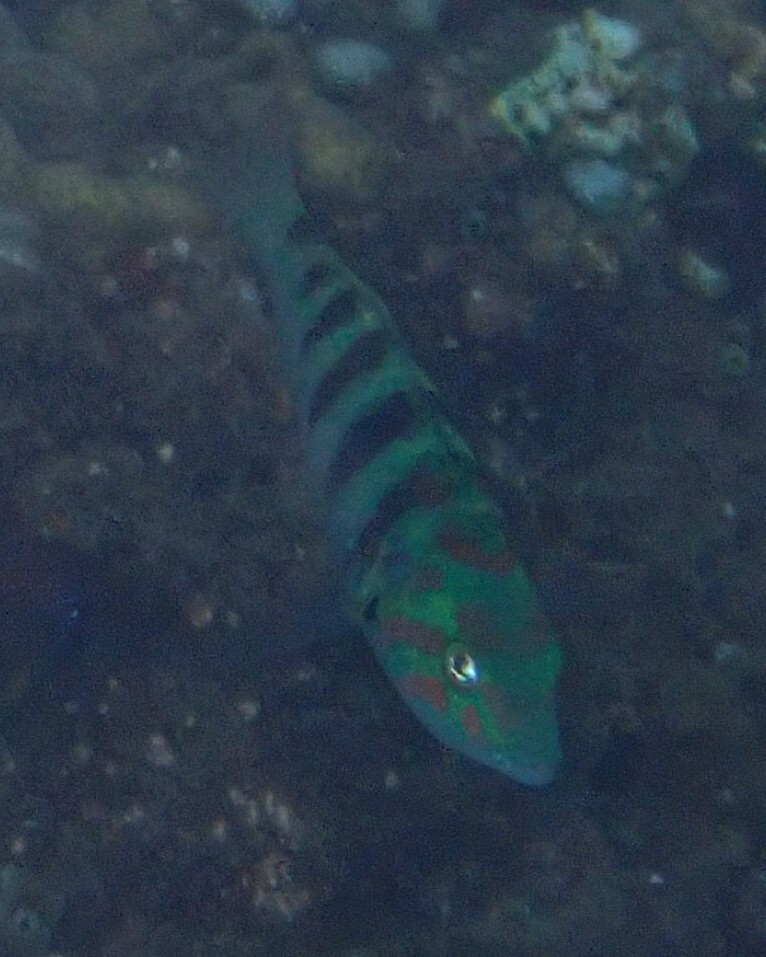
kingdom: Animalia
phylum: Chordata
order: Perciformes
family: Labridae
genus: Thalassoma
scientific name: Thalassoma hardwicke
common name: Sixbar wrasse
